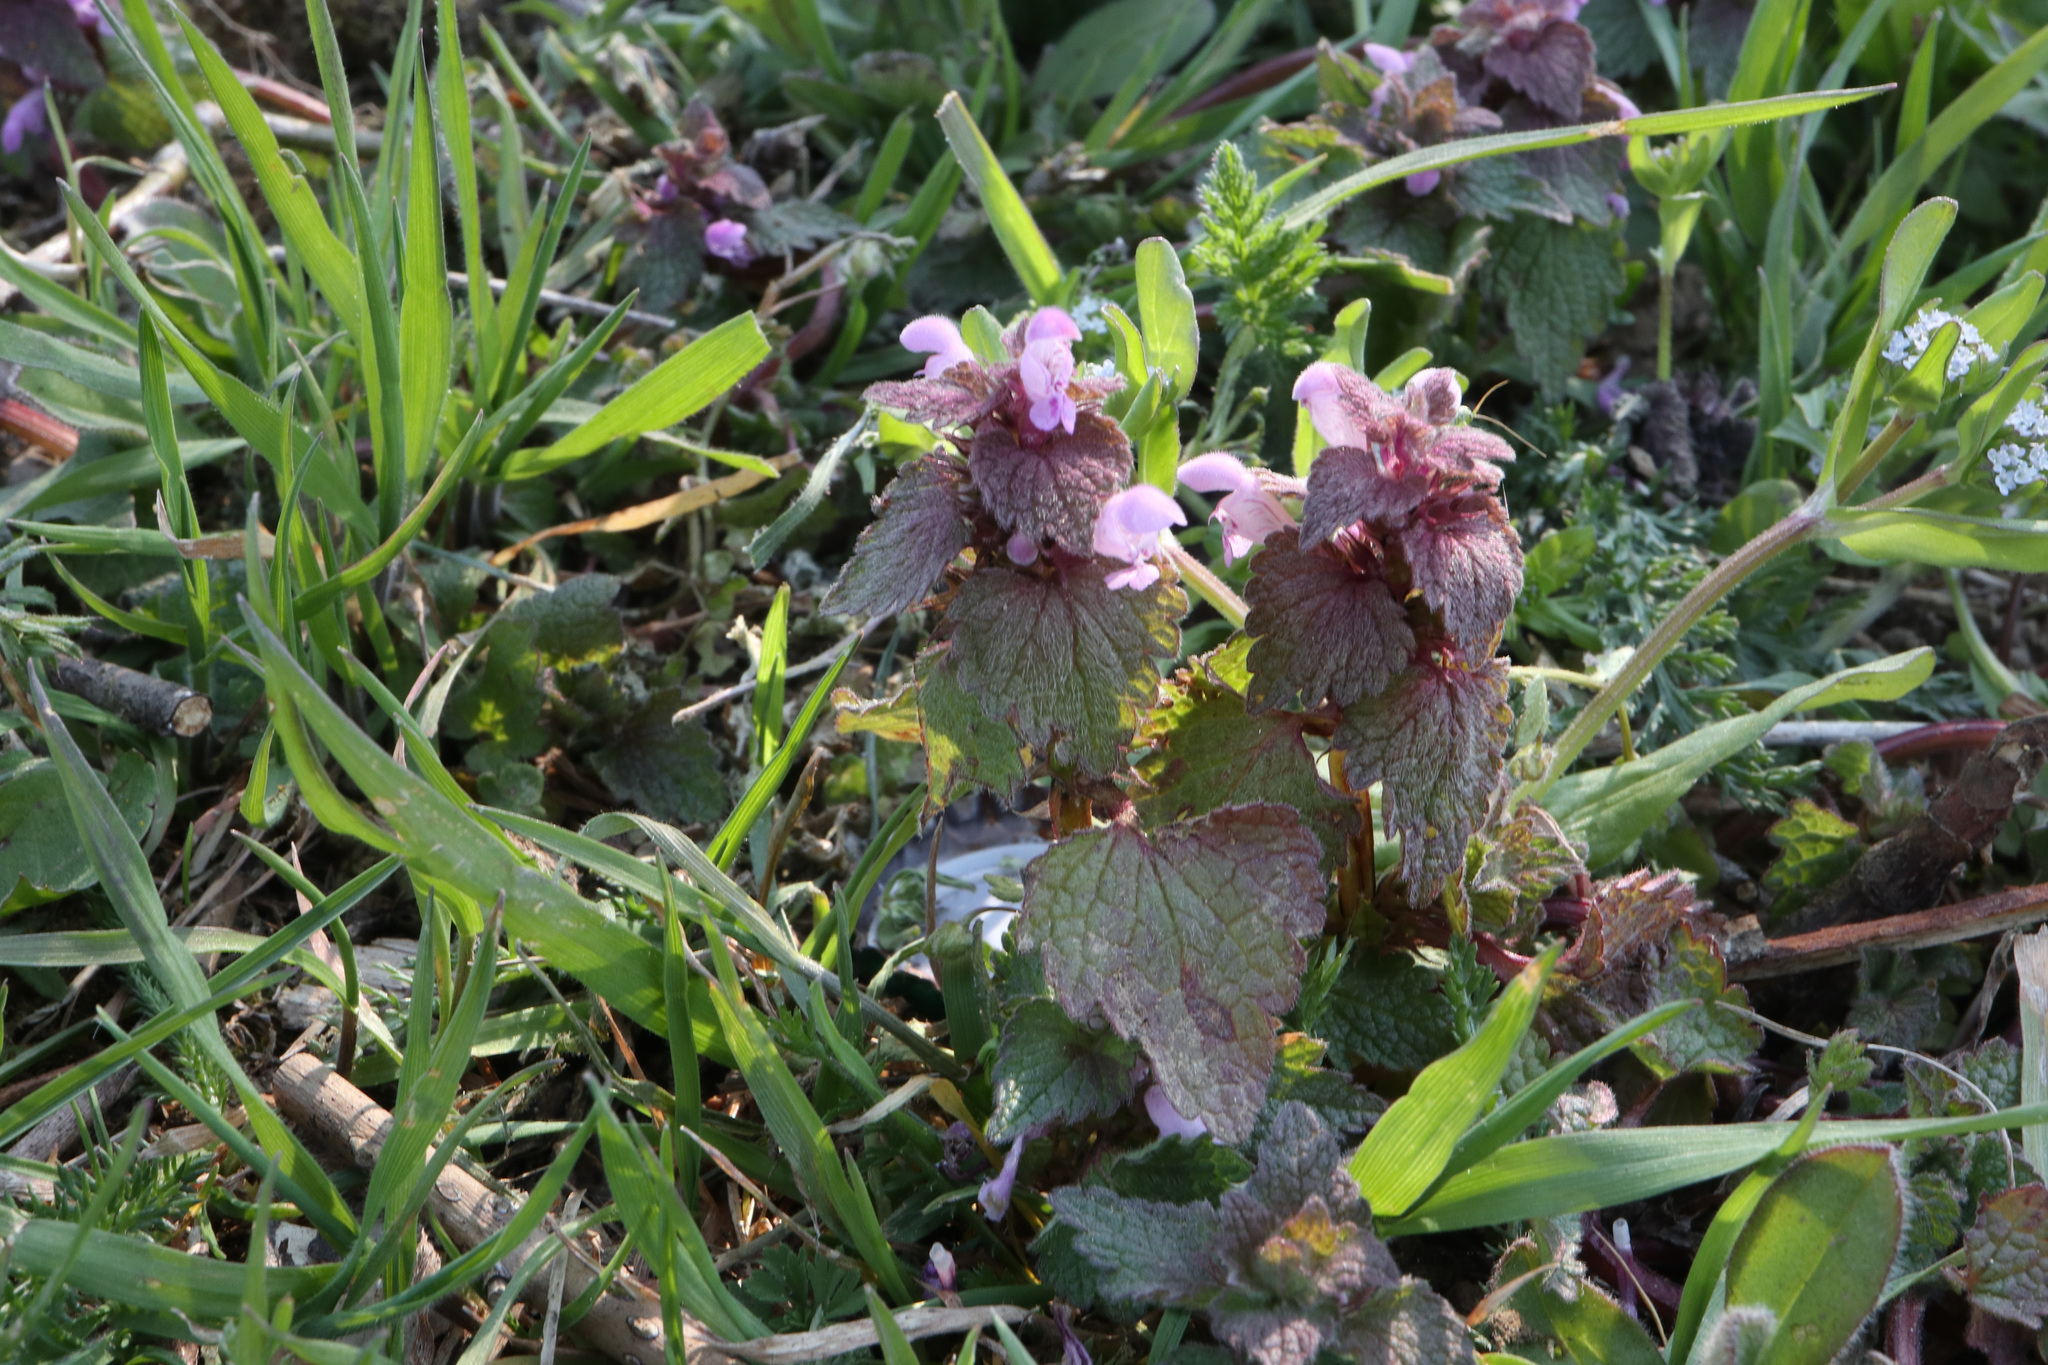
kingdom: Plantae
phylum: Tracheophyta
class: Magnoliopsida
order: Lamiales
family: Lamiaceae
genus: Lamium
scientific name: Lamium purpureum
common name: Red dead-nettle
